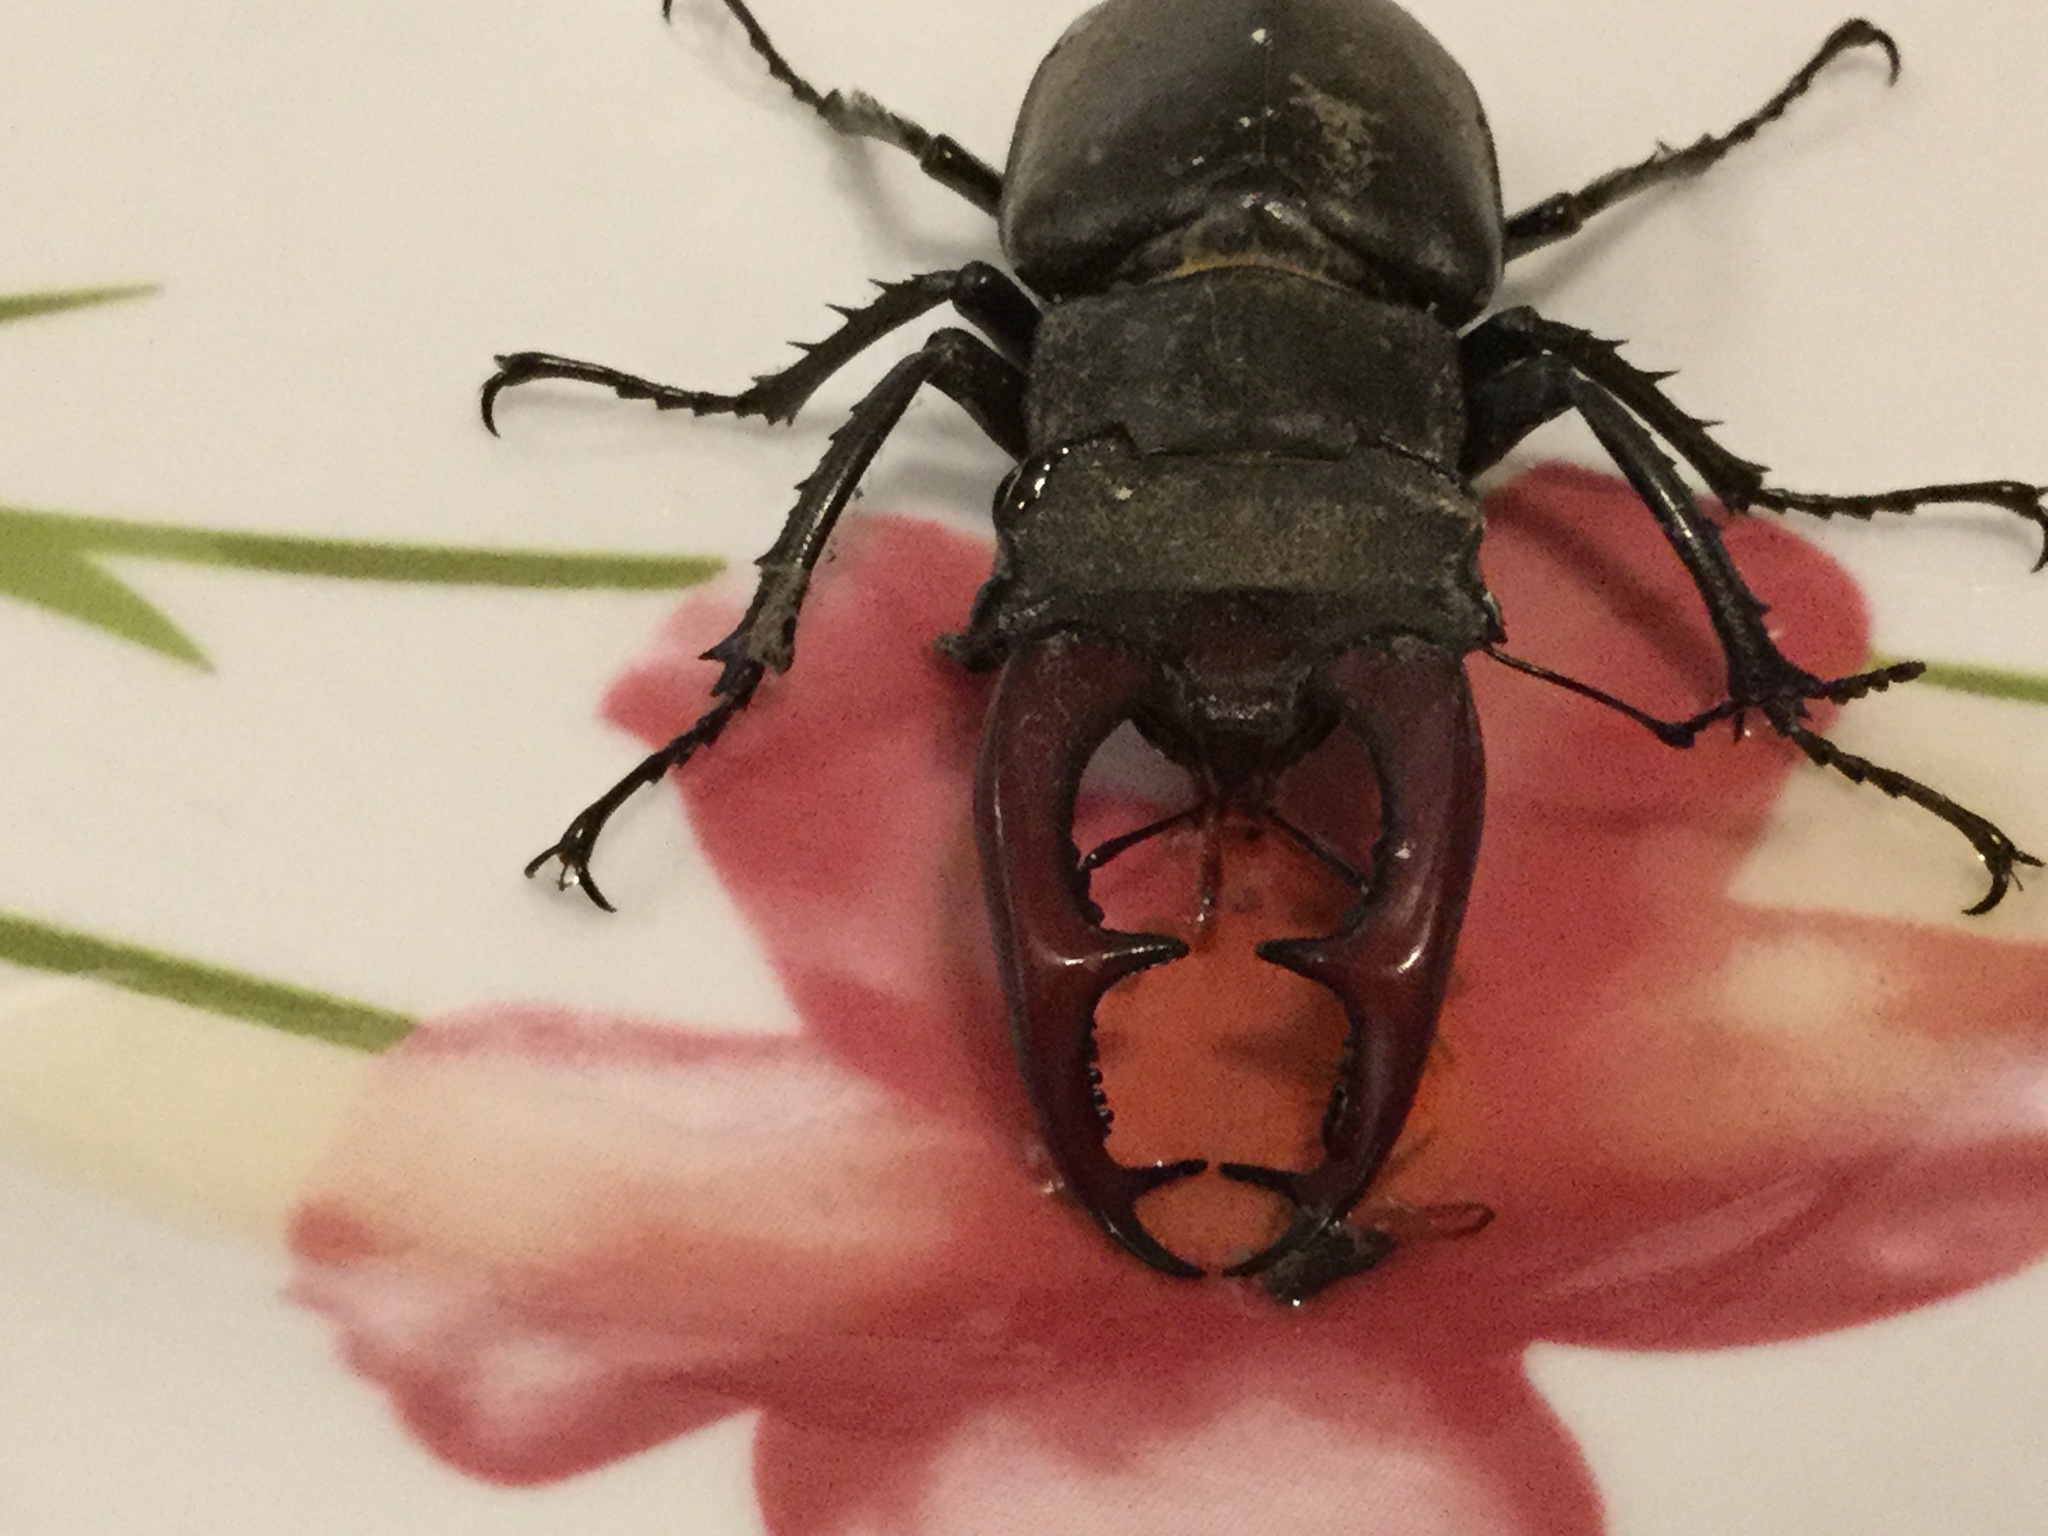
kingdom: Animalia
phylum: Arthropoda
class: Insecta
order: Coleoptera
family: Lucanidae
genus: Lucanus
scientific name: Lucanus cervus
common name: Stag beetle
